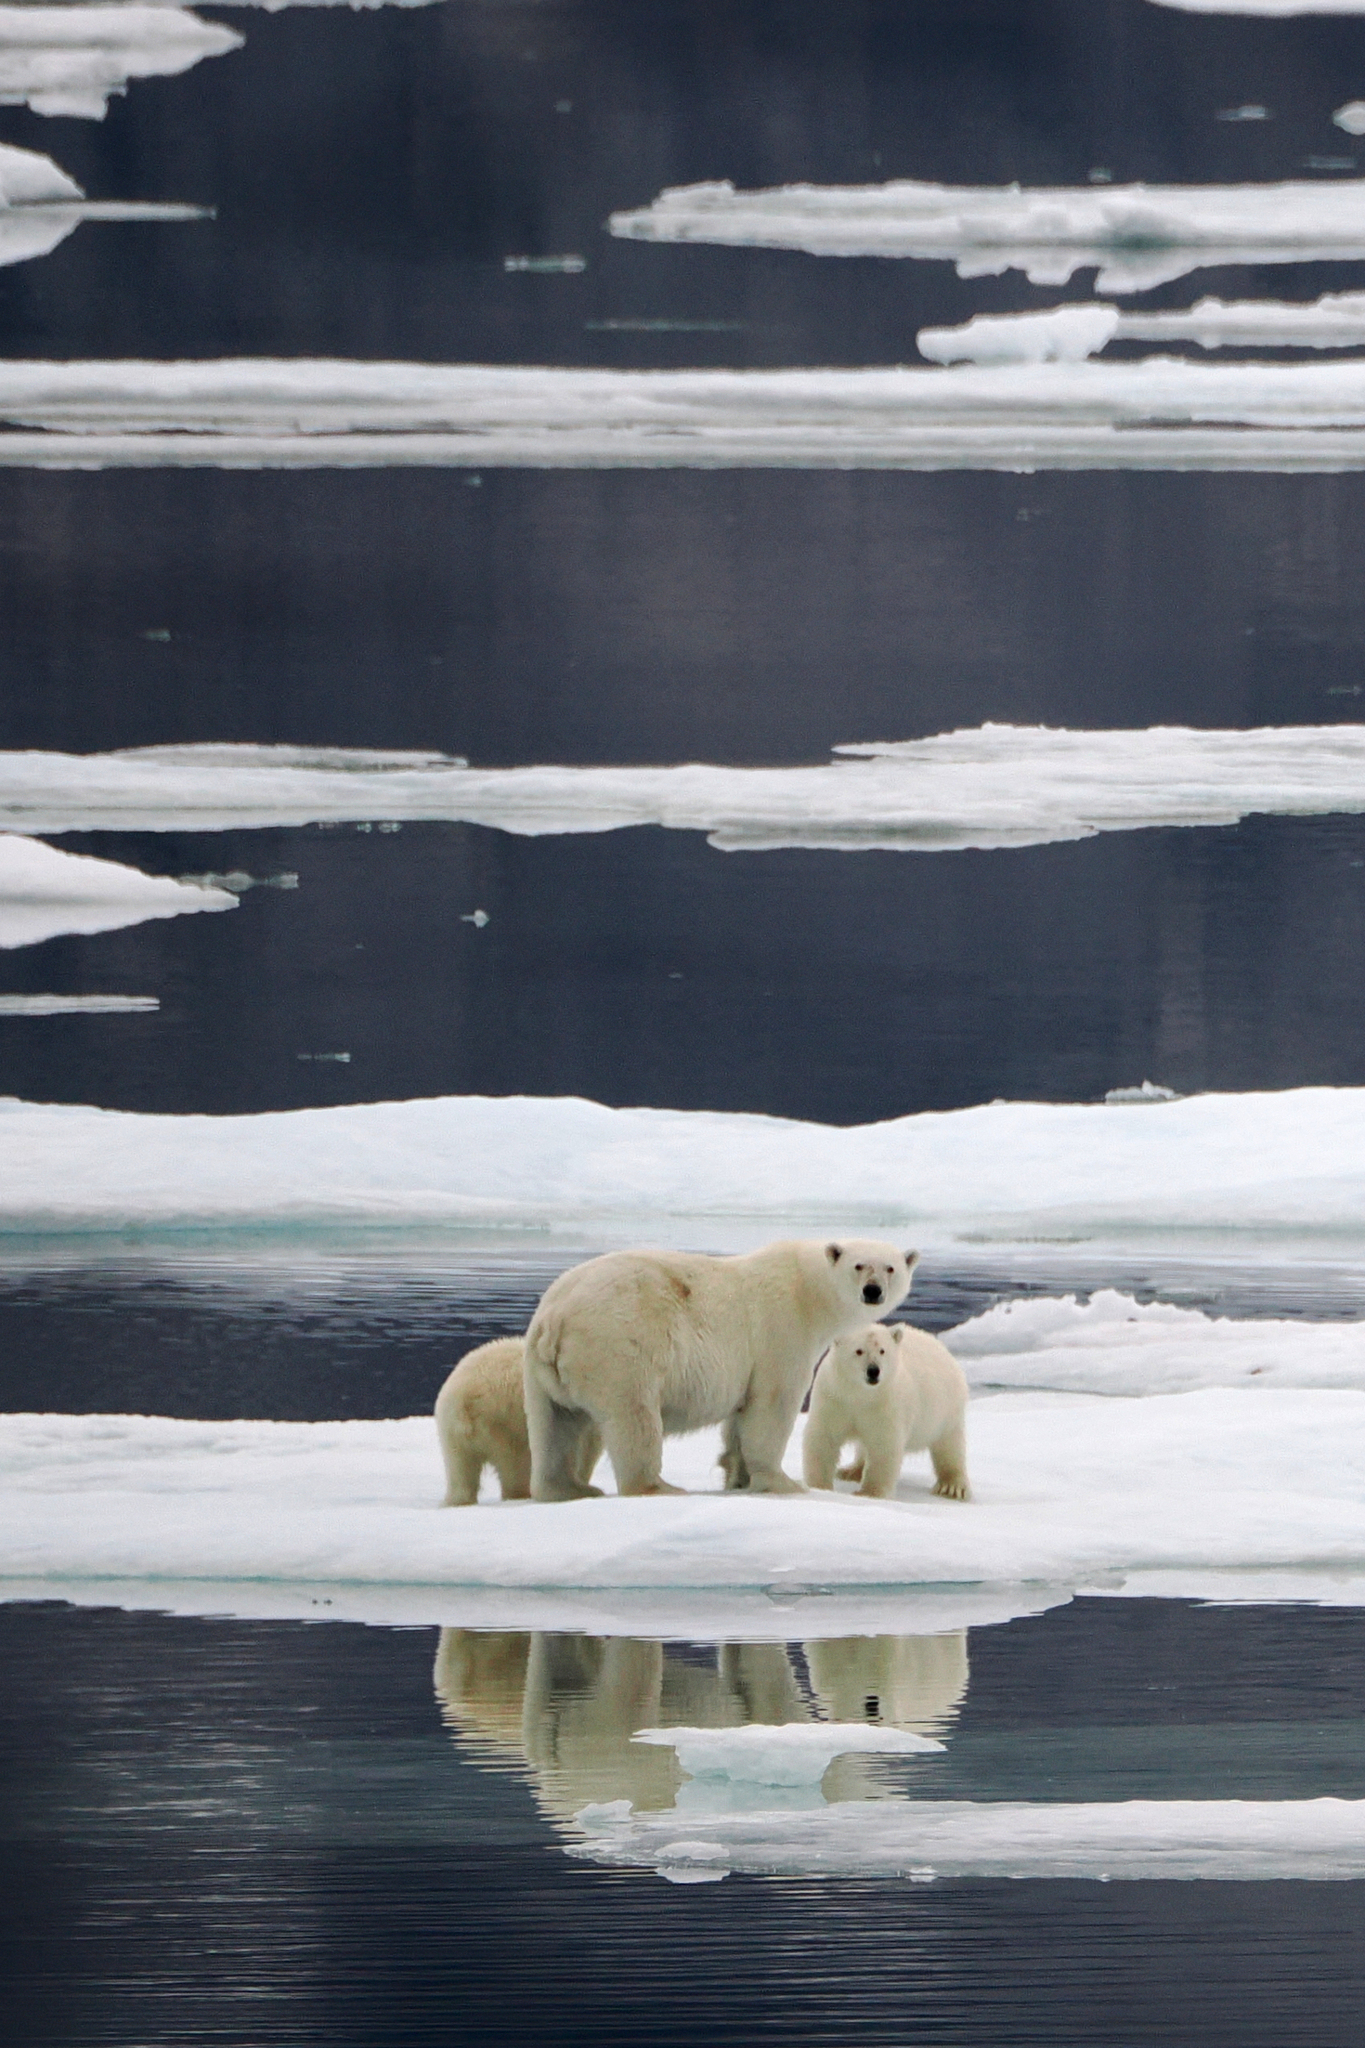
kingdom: Animalia
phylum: Chordata
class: Mammalia
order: Carnivora
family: Ursidae
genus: Ursus
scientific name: Ursus maritimus
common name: Polar bear
